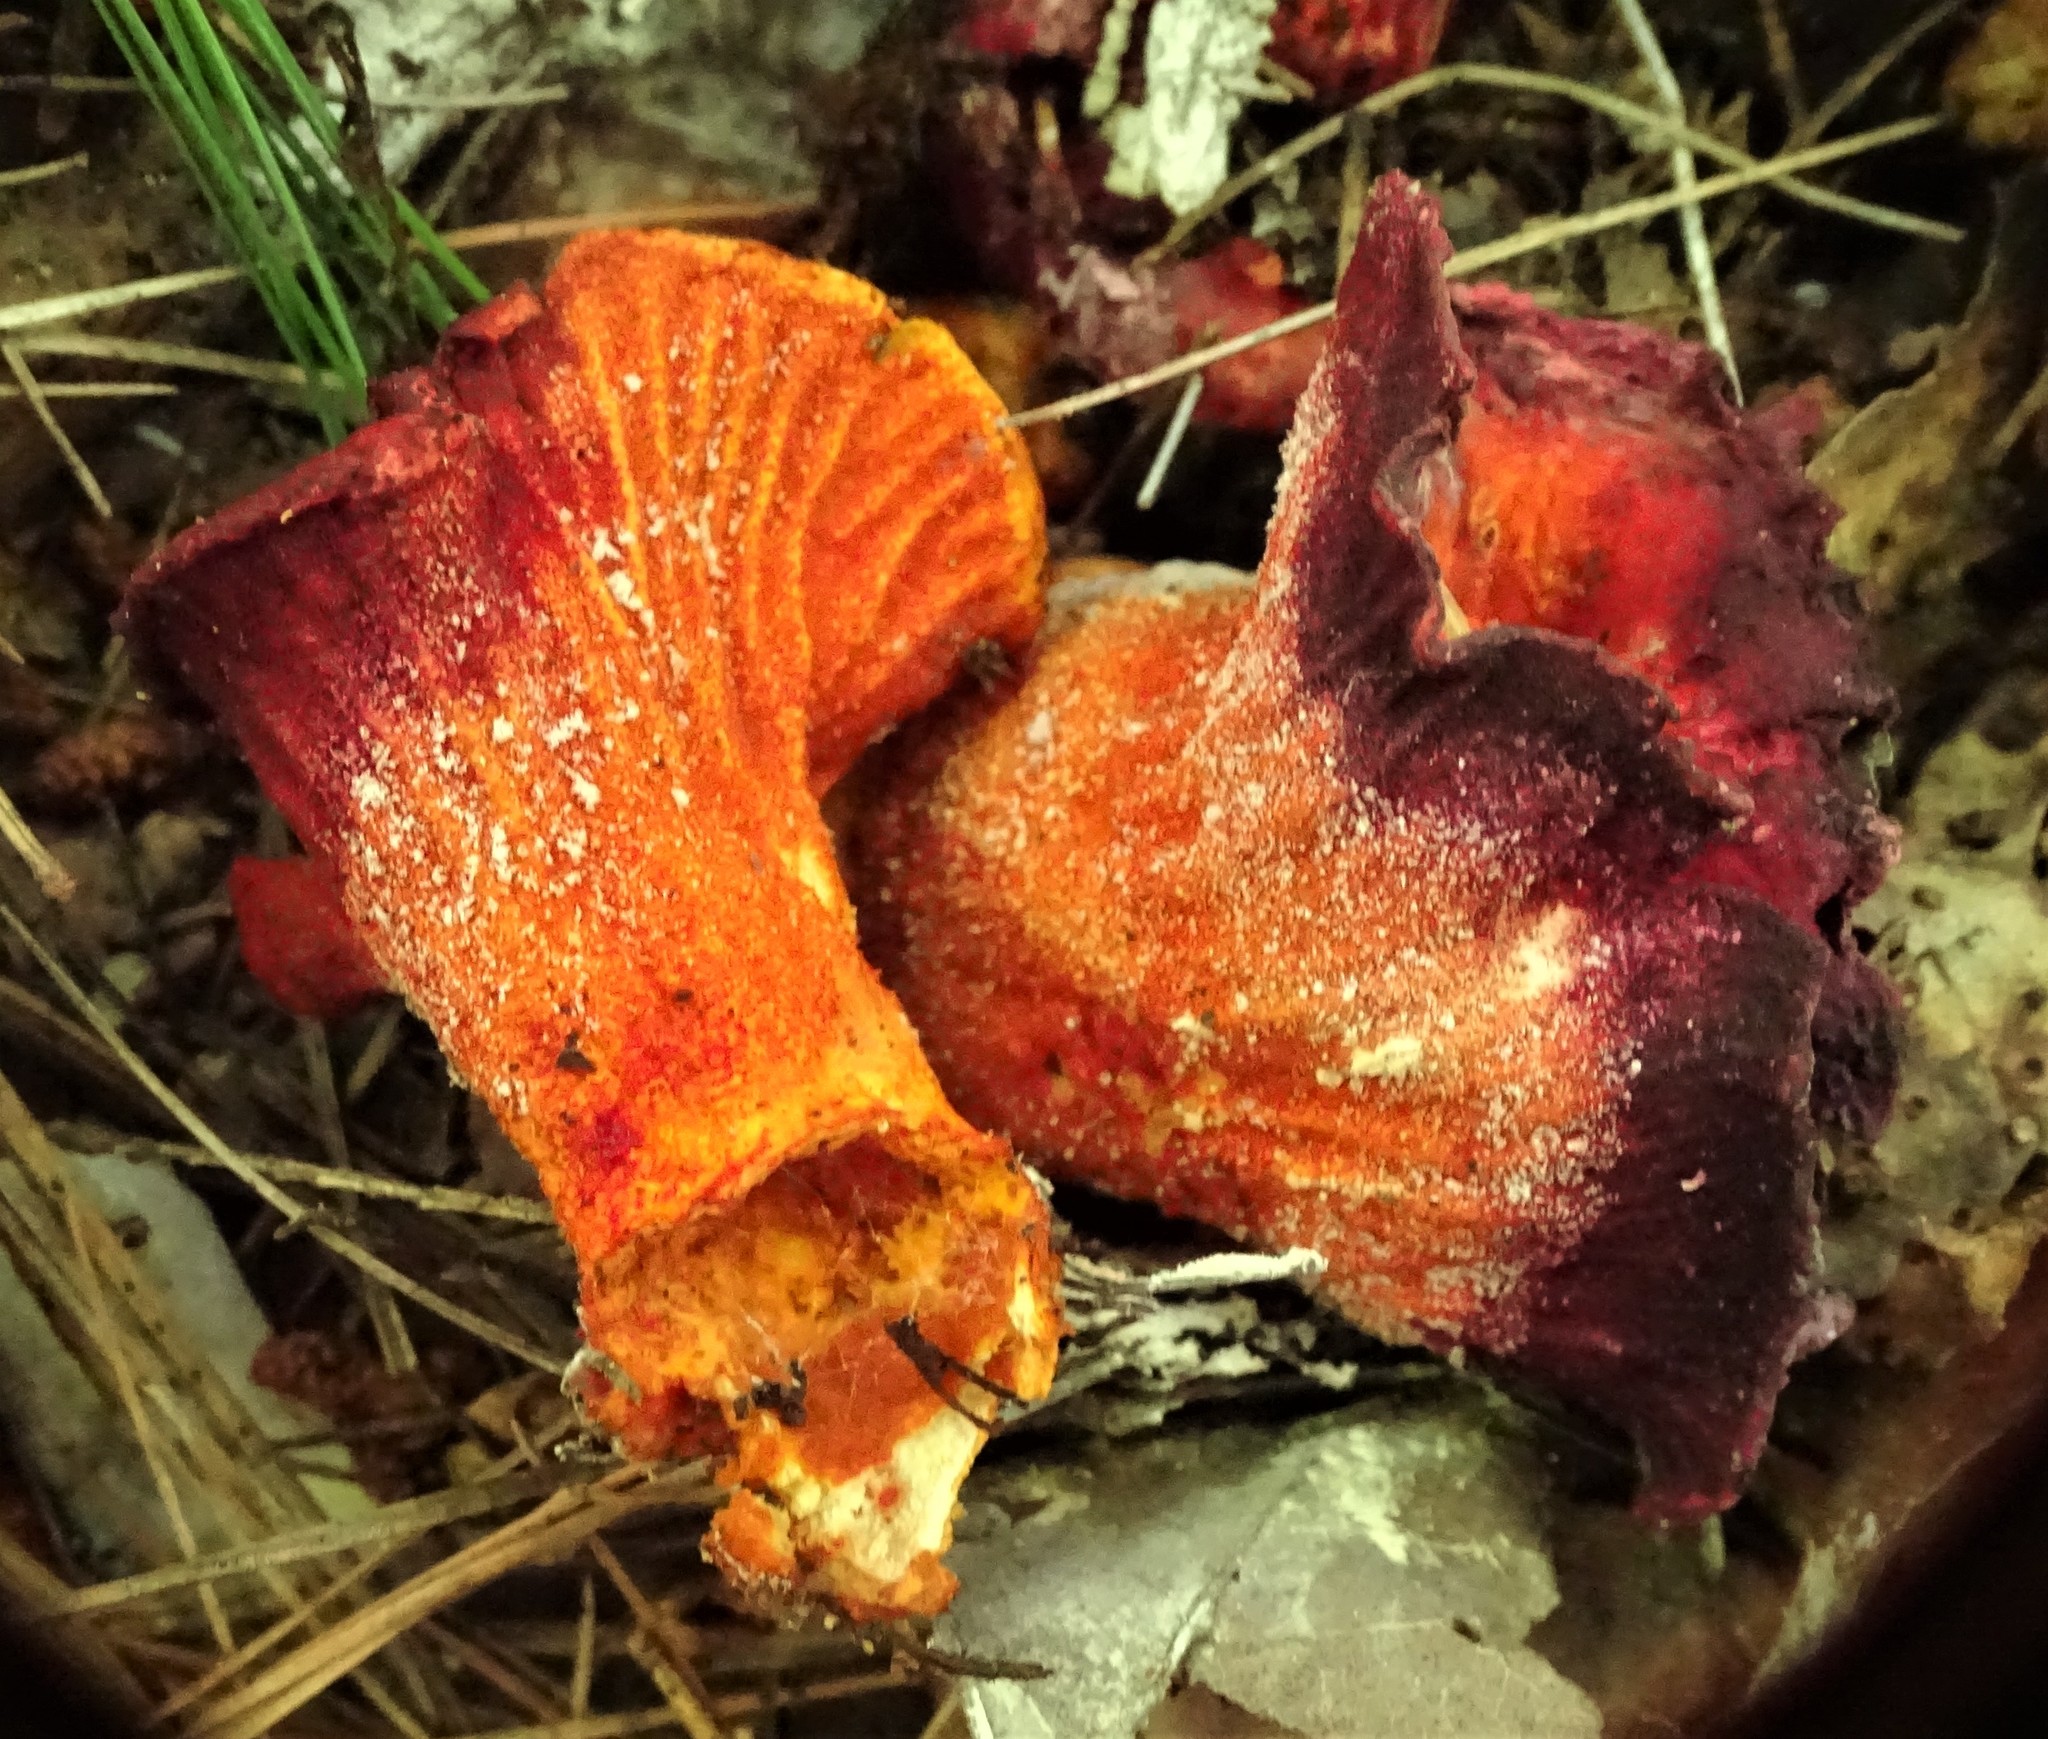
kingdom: Fungi
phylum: Ascomycota
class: Sordariomycetes
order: Hypocreales
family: Hypocreaceae
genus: Hypomyces
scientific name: Hypomyces lactifluorum
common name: Lobster mushroom
